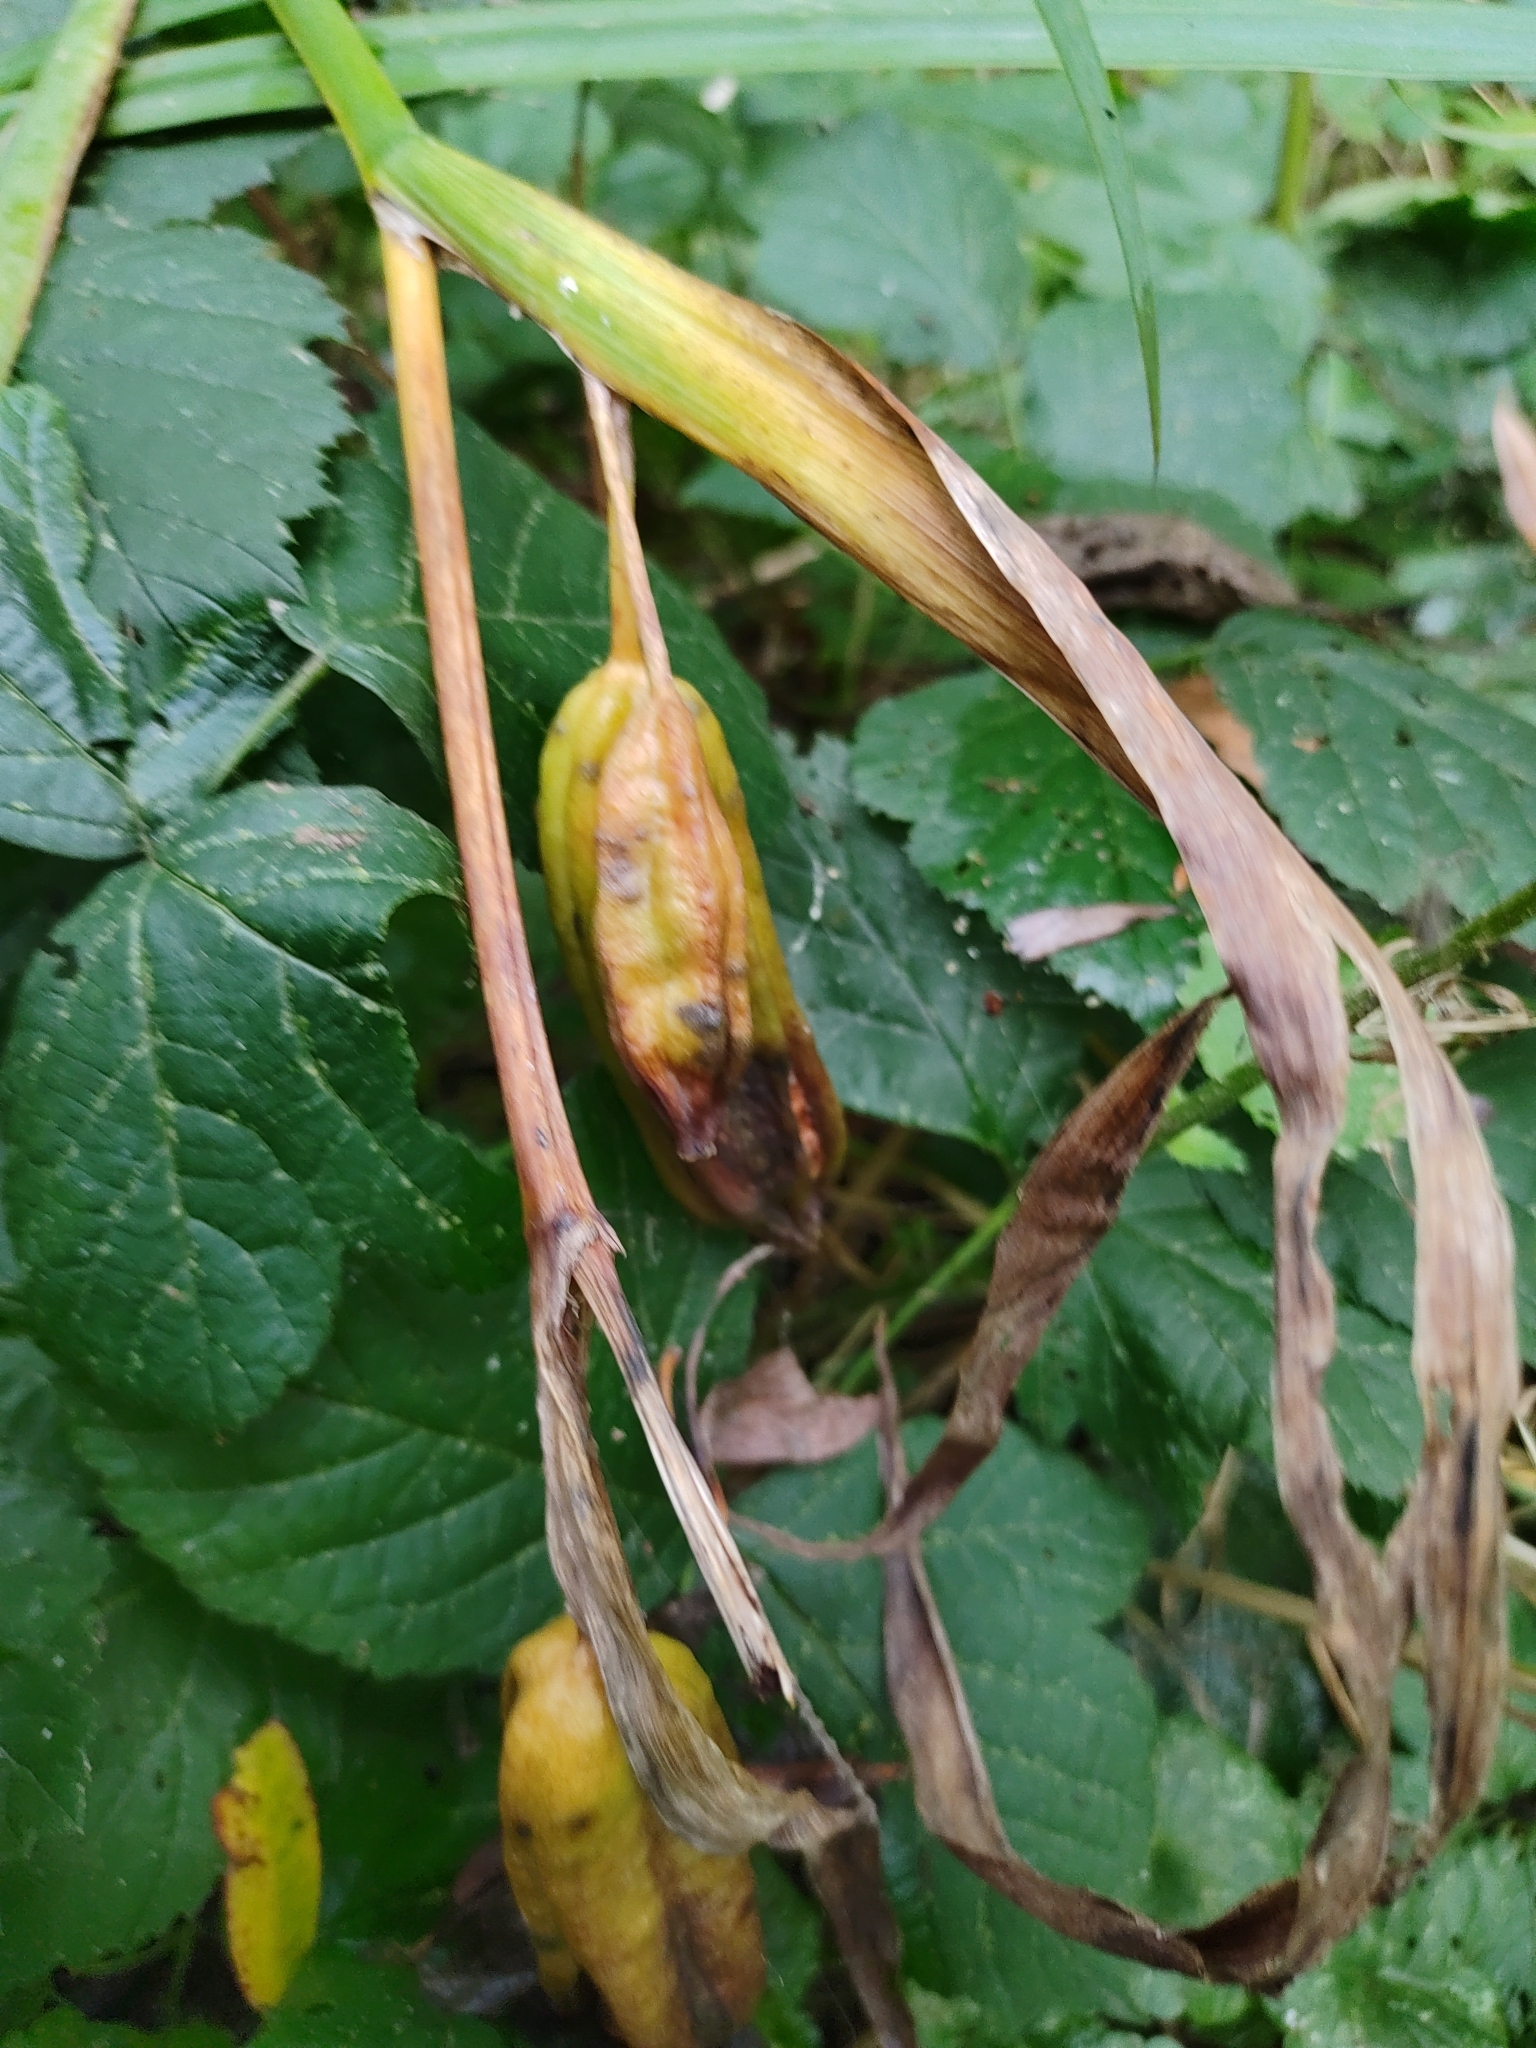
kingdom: Plantae
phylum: Tracheophyta
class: Liliopsida
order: Asparagales
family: Iridaceae
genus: Iris
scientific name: Iris pseudacorus
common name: Yellow flag
